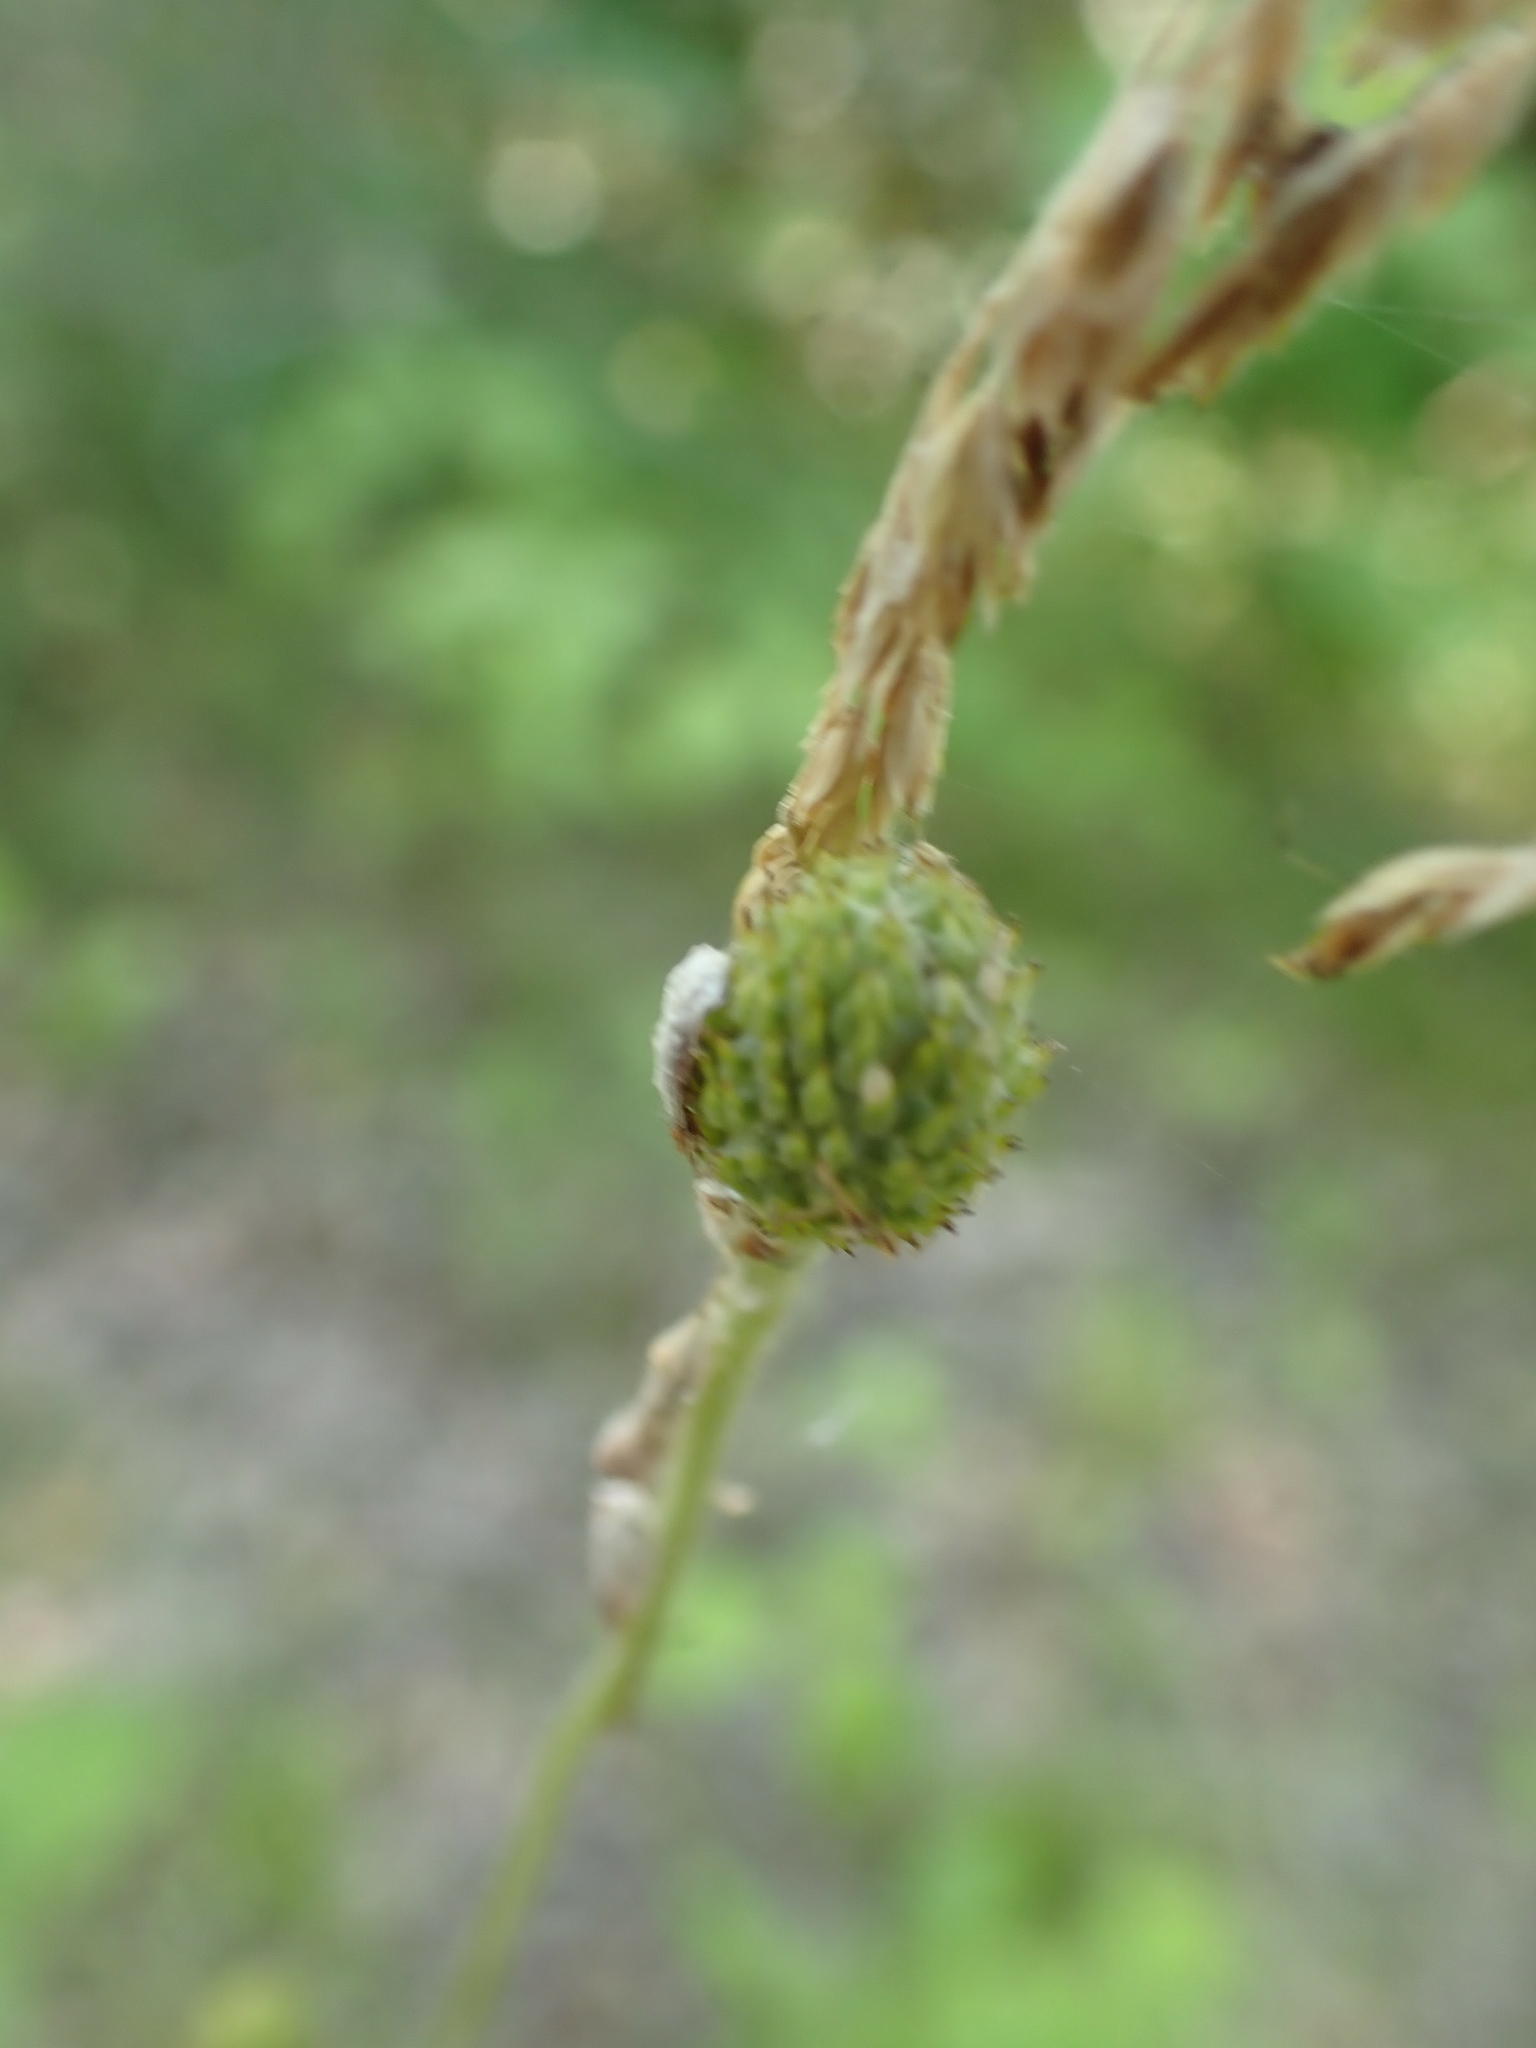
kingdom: Plantae
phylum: Tracheophyta
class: Magnoliopsida
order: Ranunculales
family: Ranunculaceae
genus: Anemone
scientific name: Anemone virginiana
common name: Tall anemone
